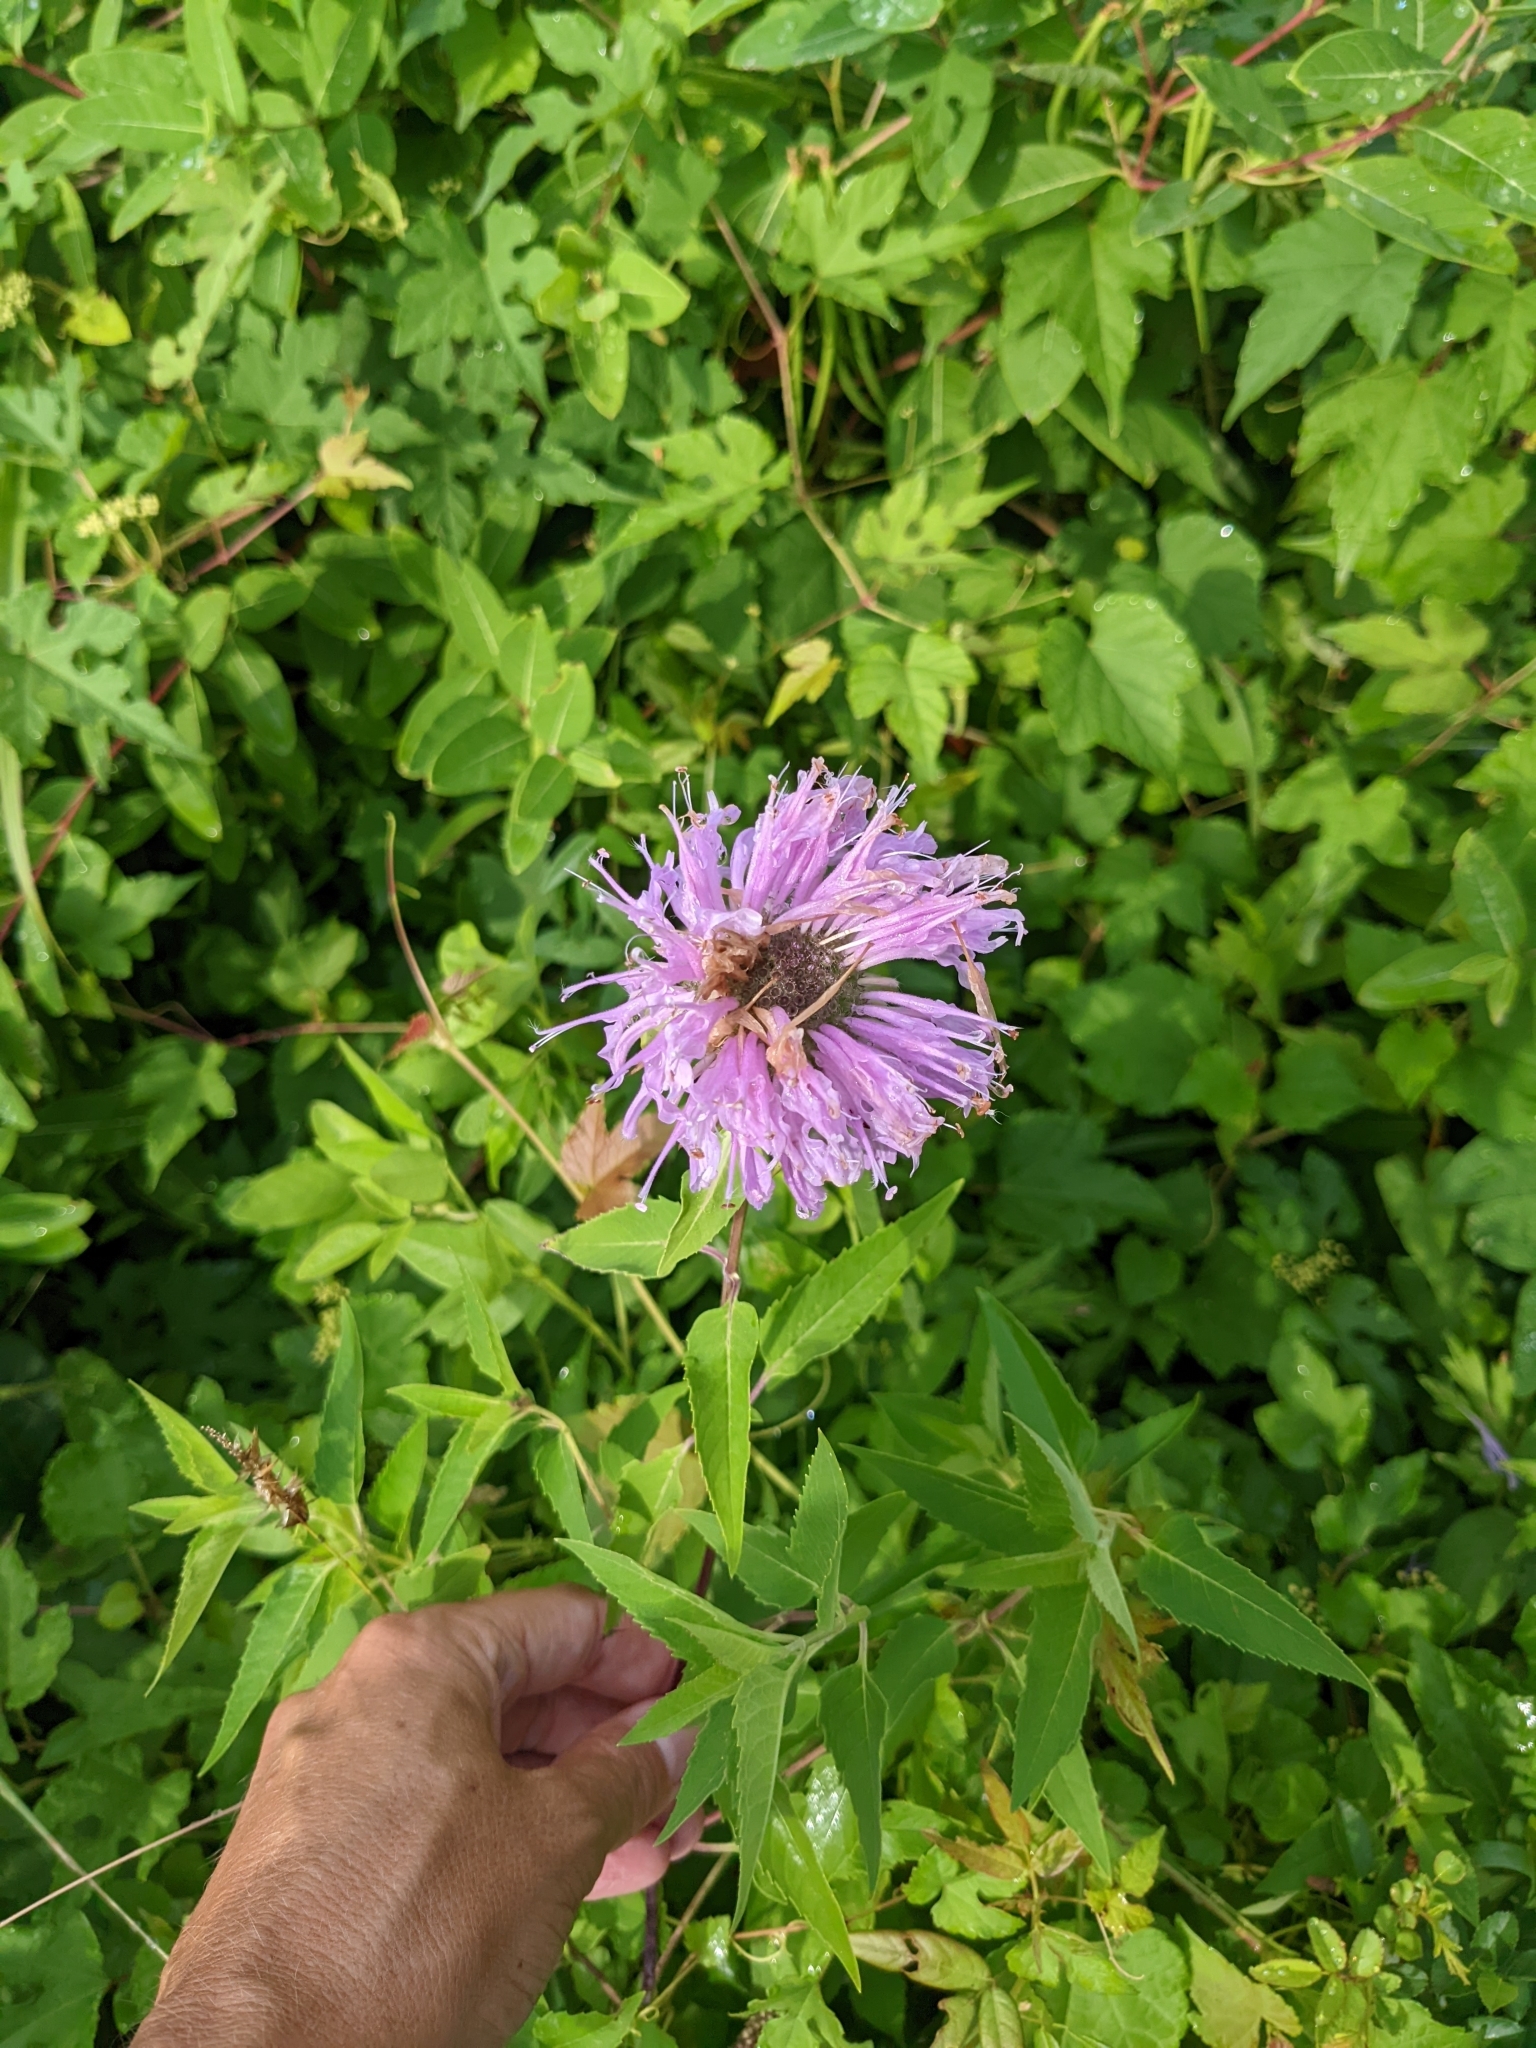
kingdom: Plantae
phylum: Tracheophyta
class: Magnoliopsida
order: Lamiales
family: Lamiaceae
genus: Monarda
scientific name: Monarda fistulosa
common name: Purple beebalm
